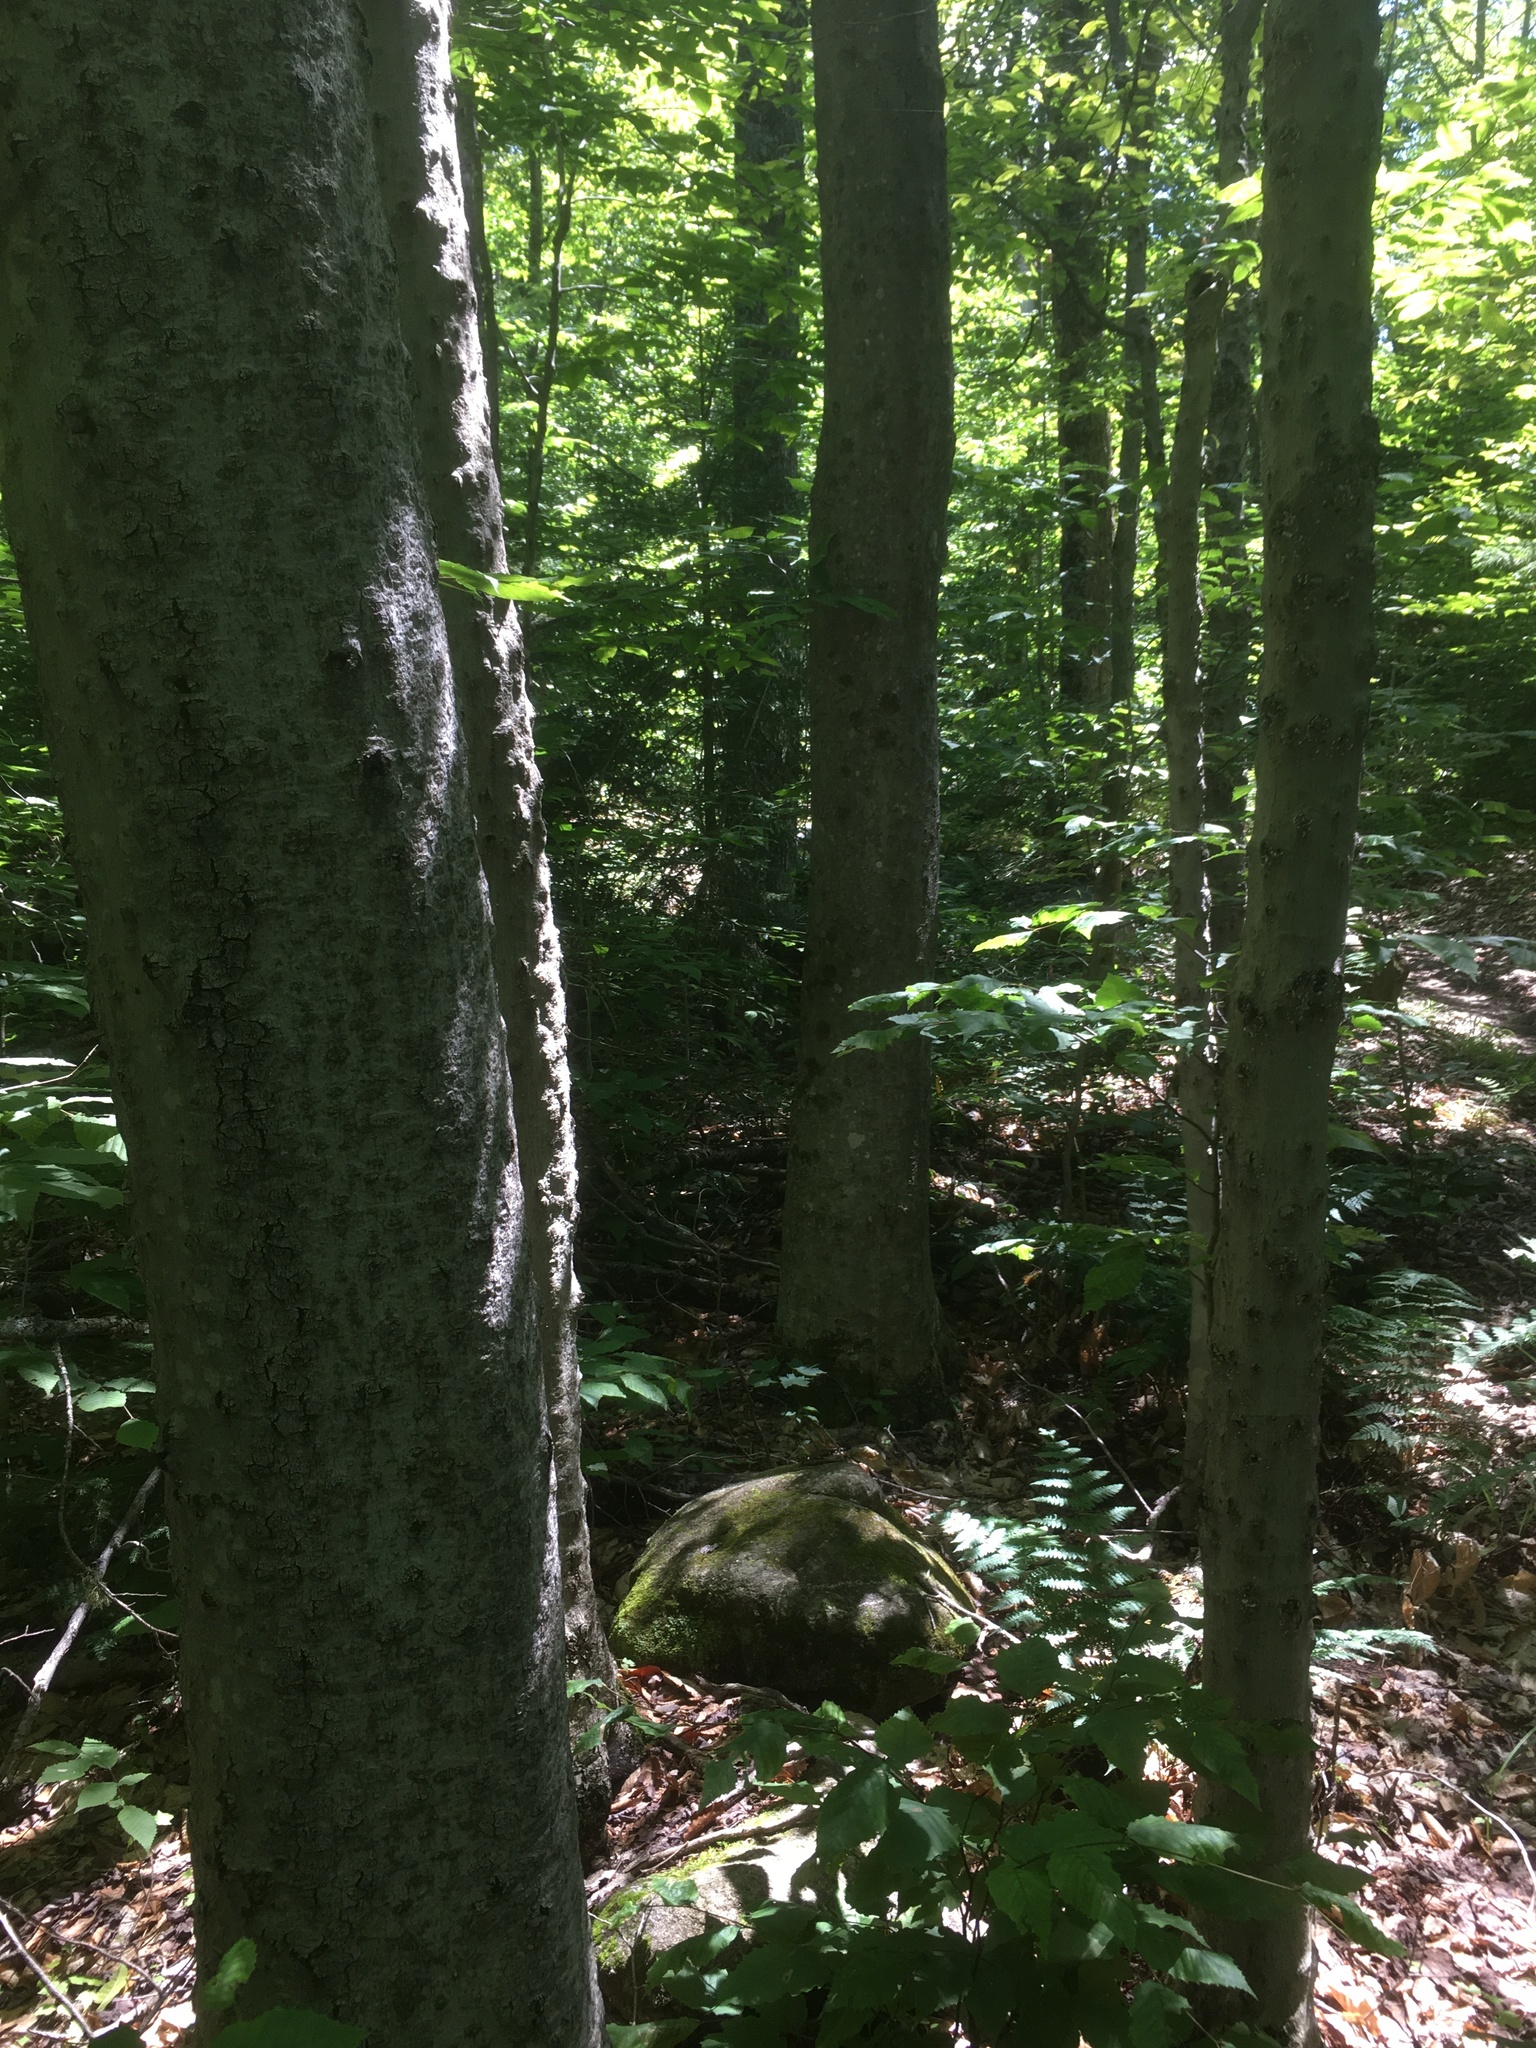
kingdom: Plantae
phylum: Tracheophyta
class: Magnoliopsida
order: Fagales
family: Fagaceae
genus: Fagus
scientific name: Fagus grandifolia
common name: American beech
